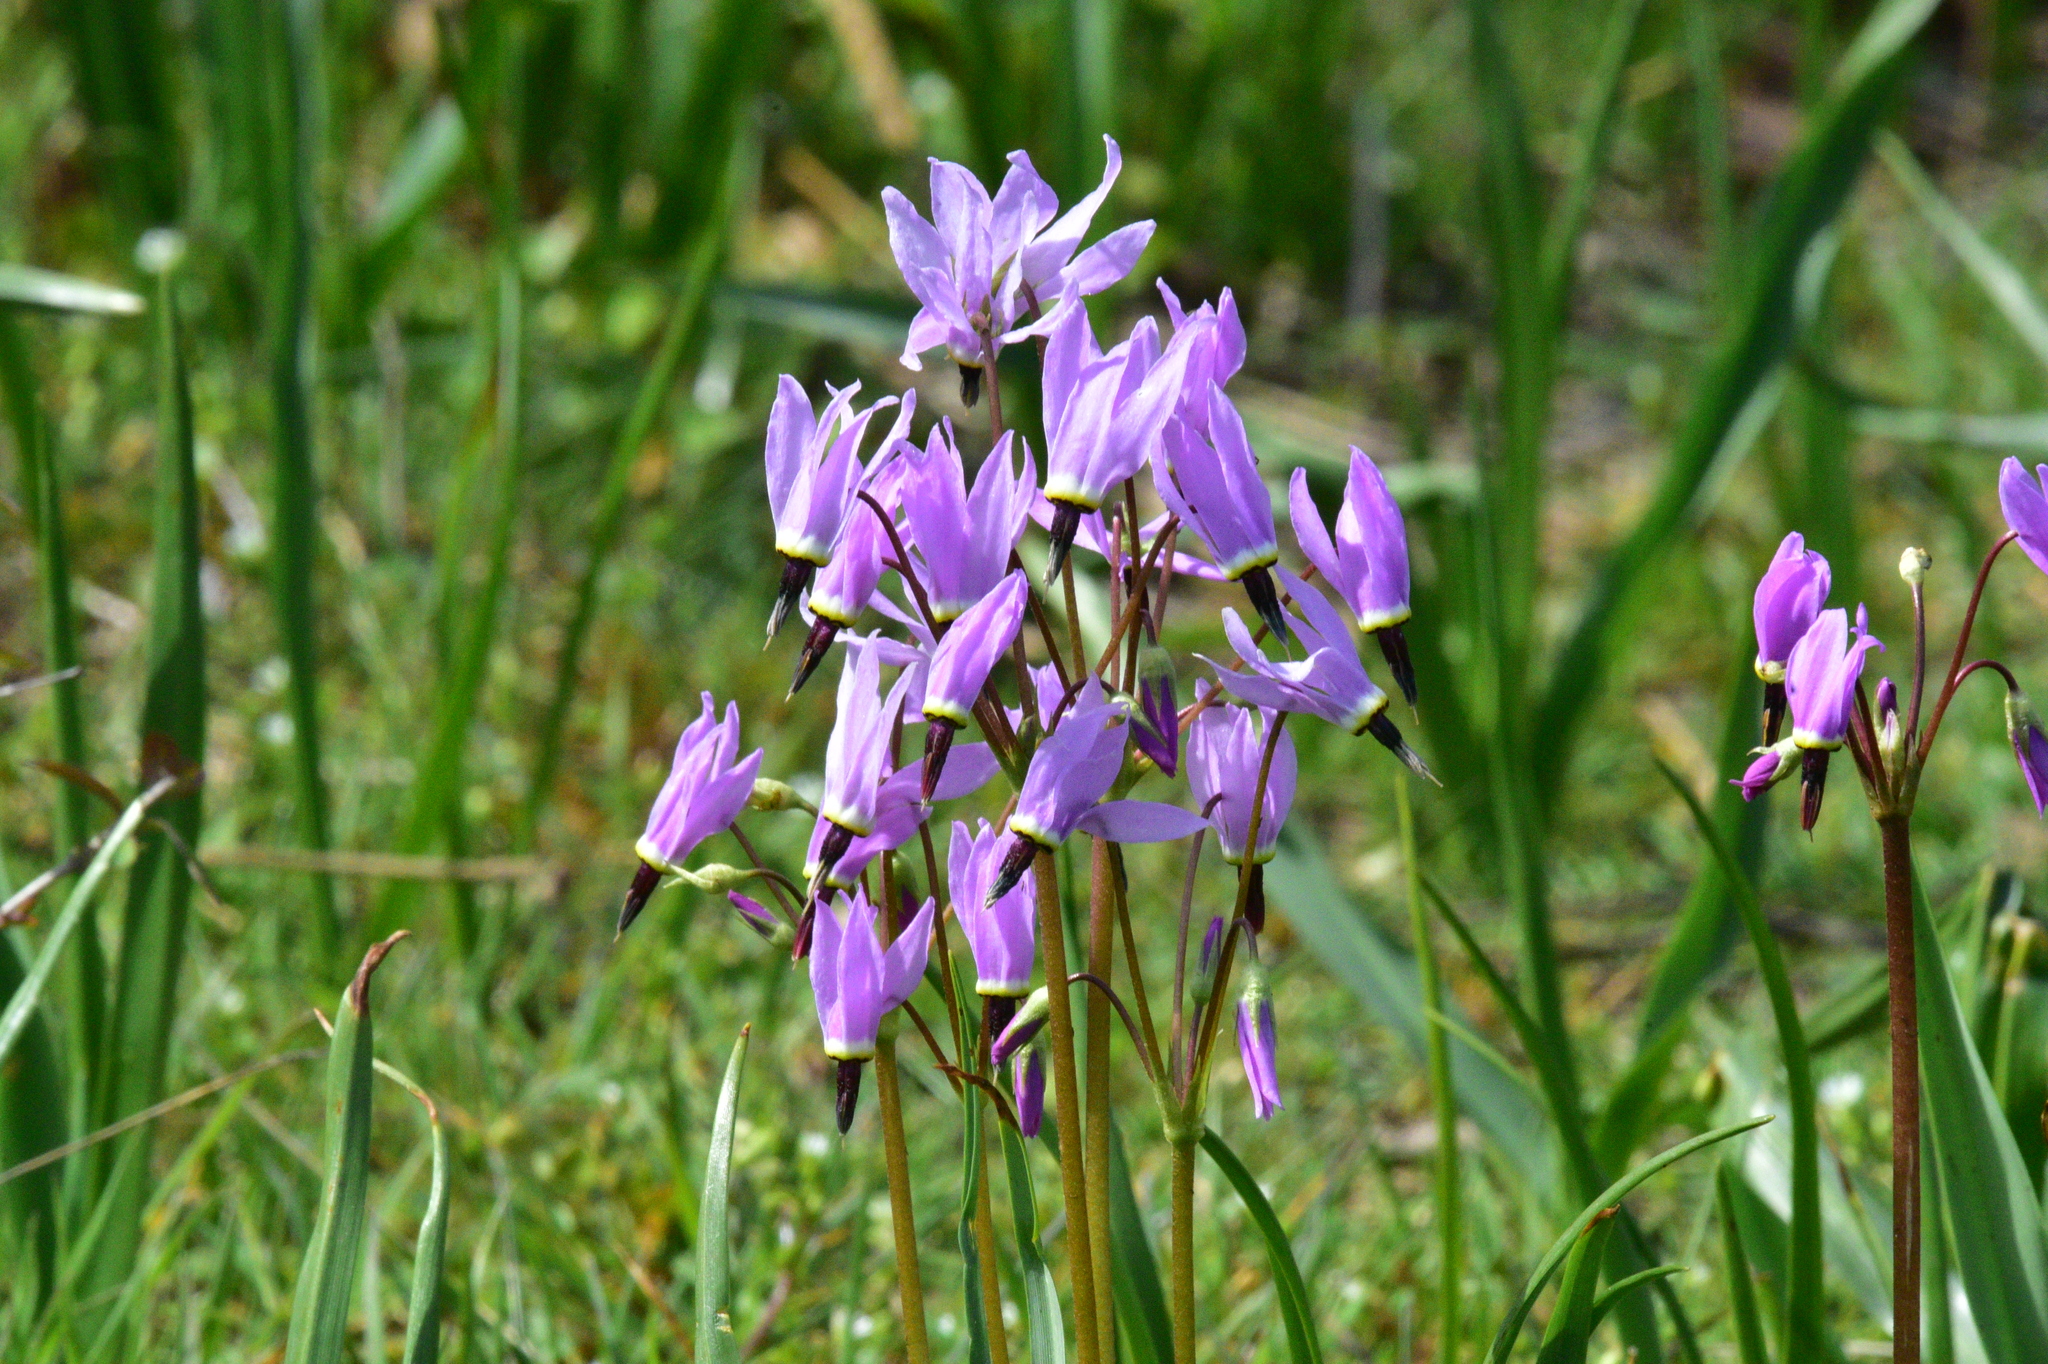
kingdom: Plantae
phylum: Tracheophyta
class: Magnoliopsida
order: Ericales
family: Primulaceae
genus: Dodecatheon
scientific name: Dodecatheon hendersonii
